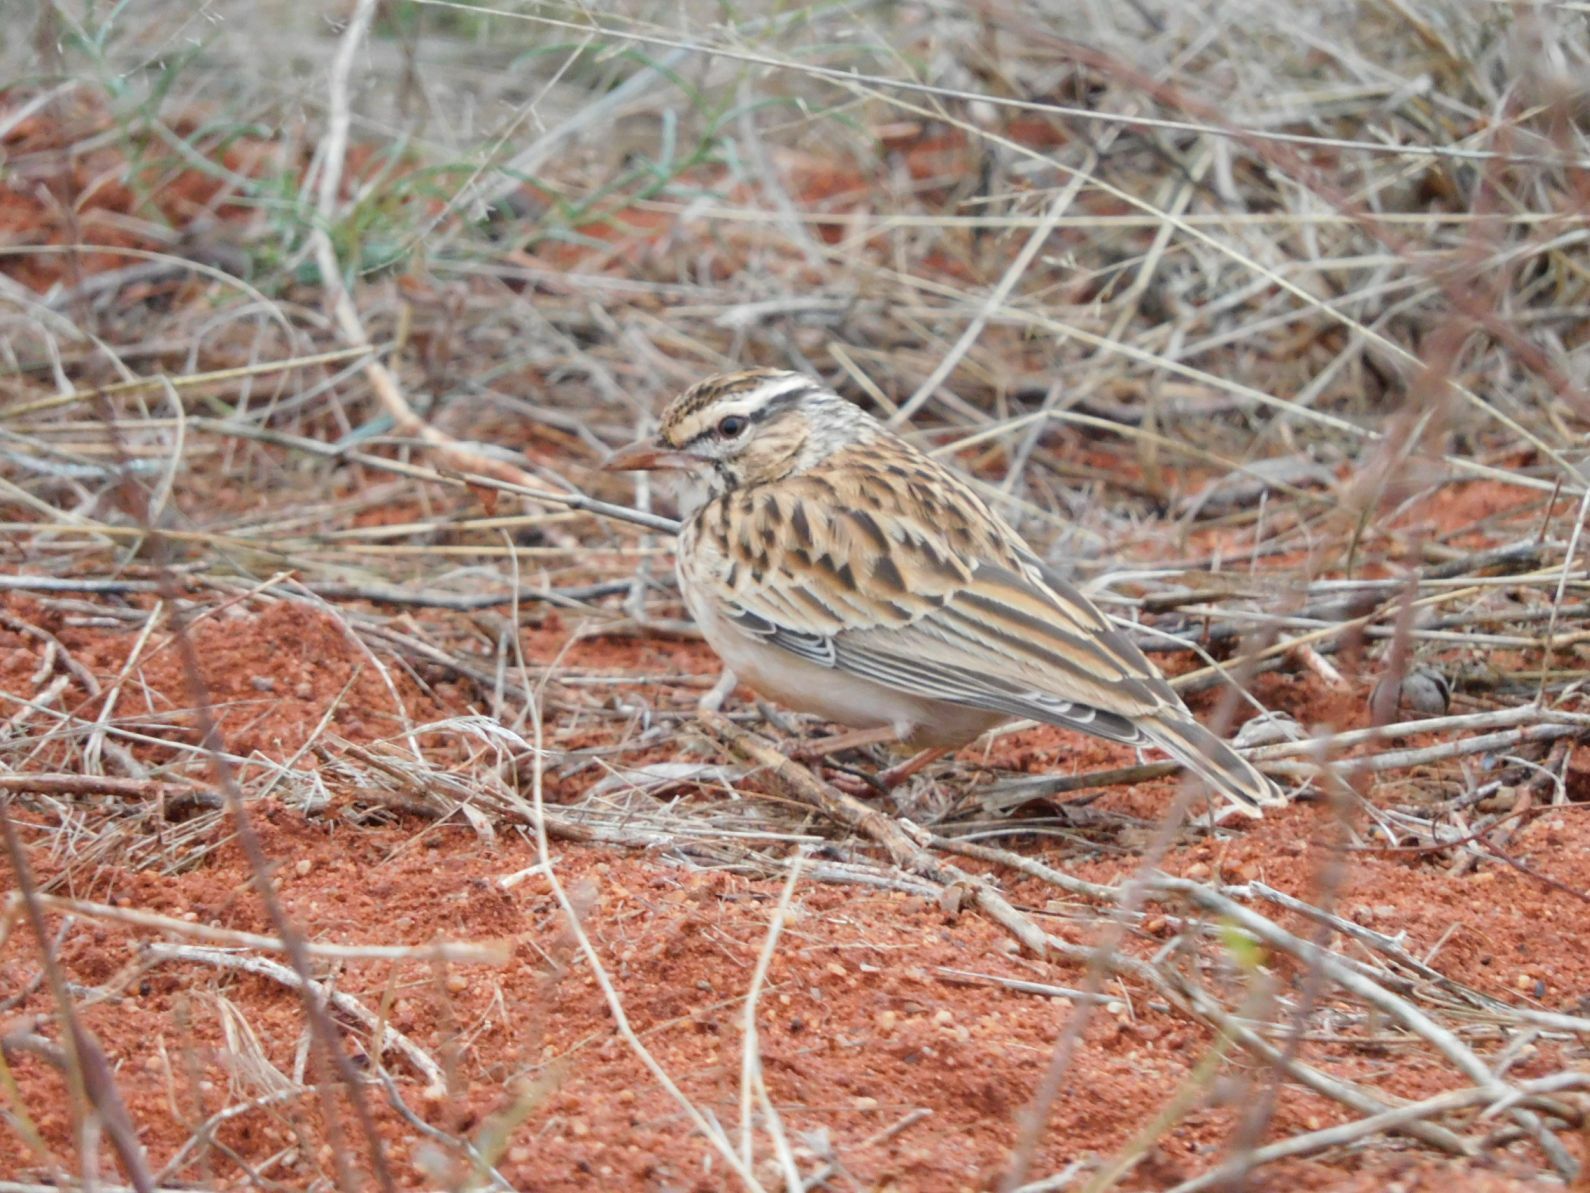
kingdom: Animalia
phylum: Chordata
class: Aves
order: Passeriformes
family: Alaudidae
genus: Calendulauda
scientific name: Calendulauda sabota
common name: Sabota lark
